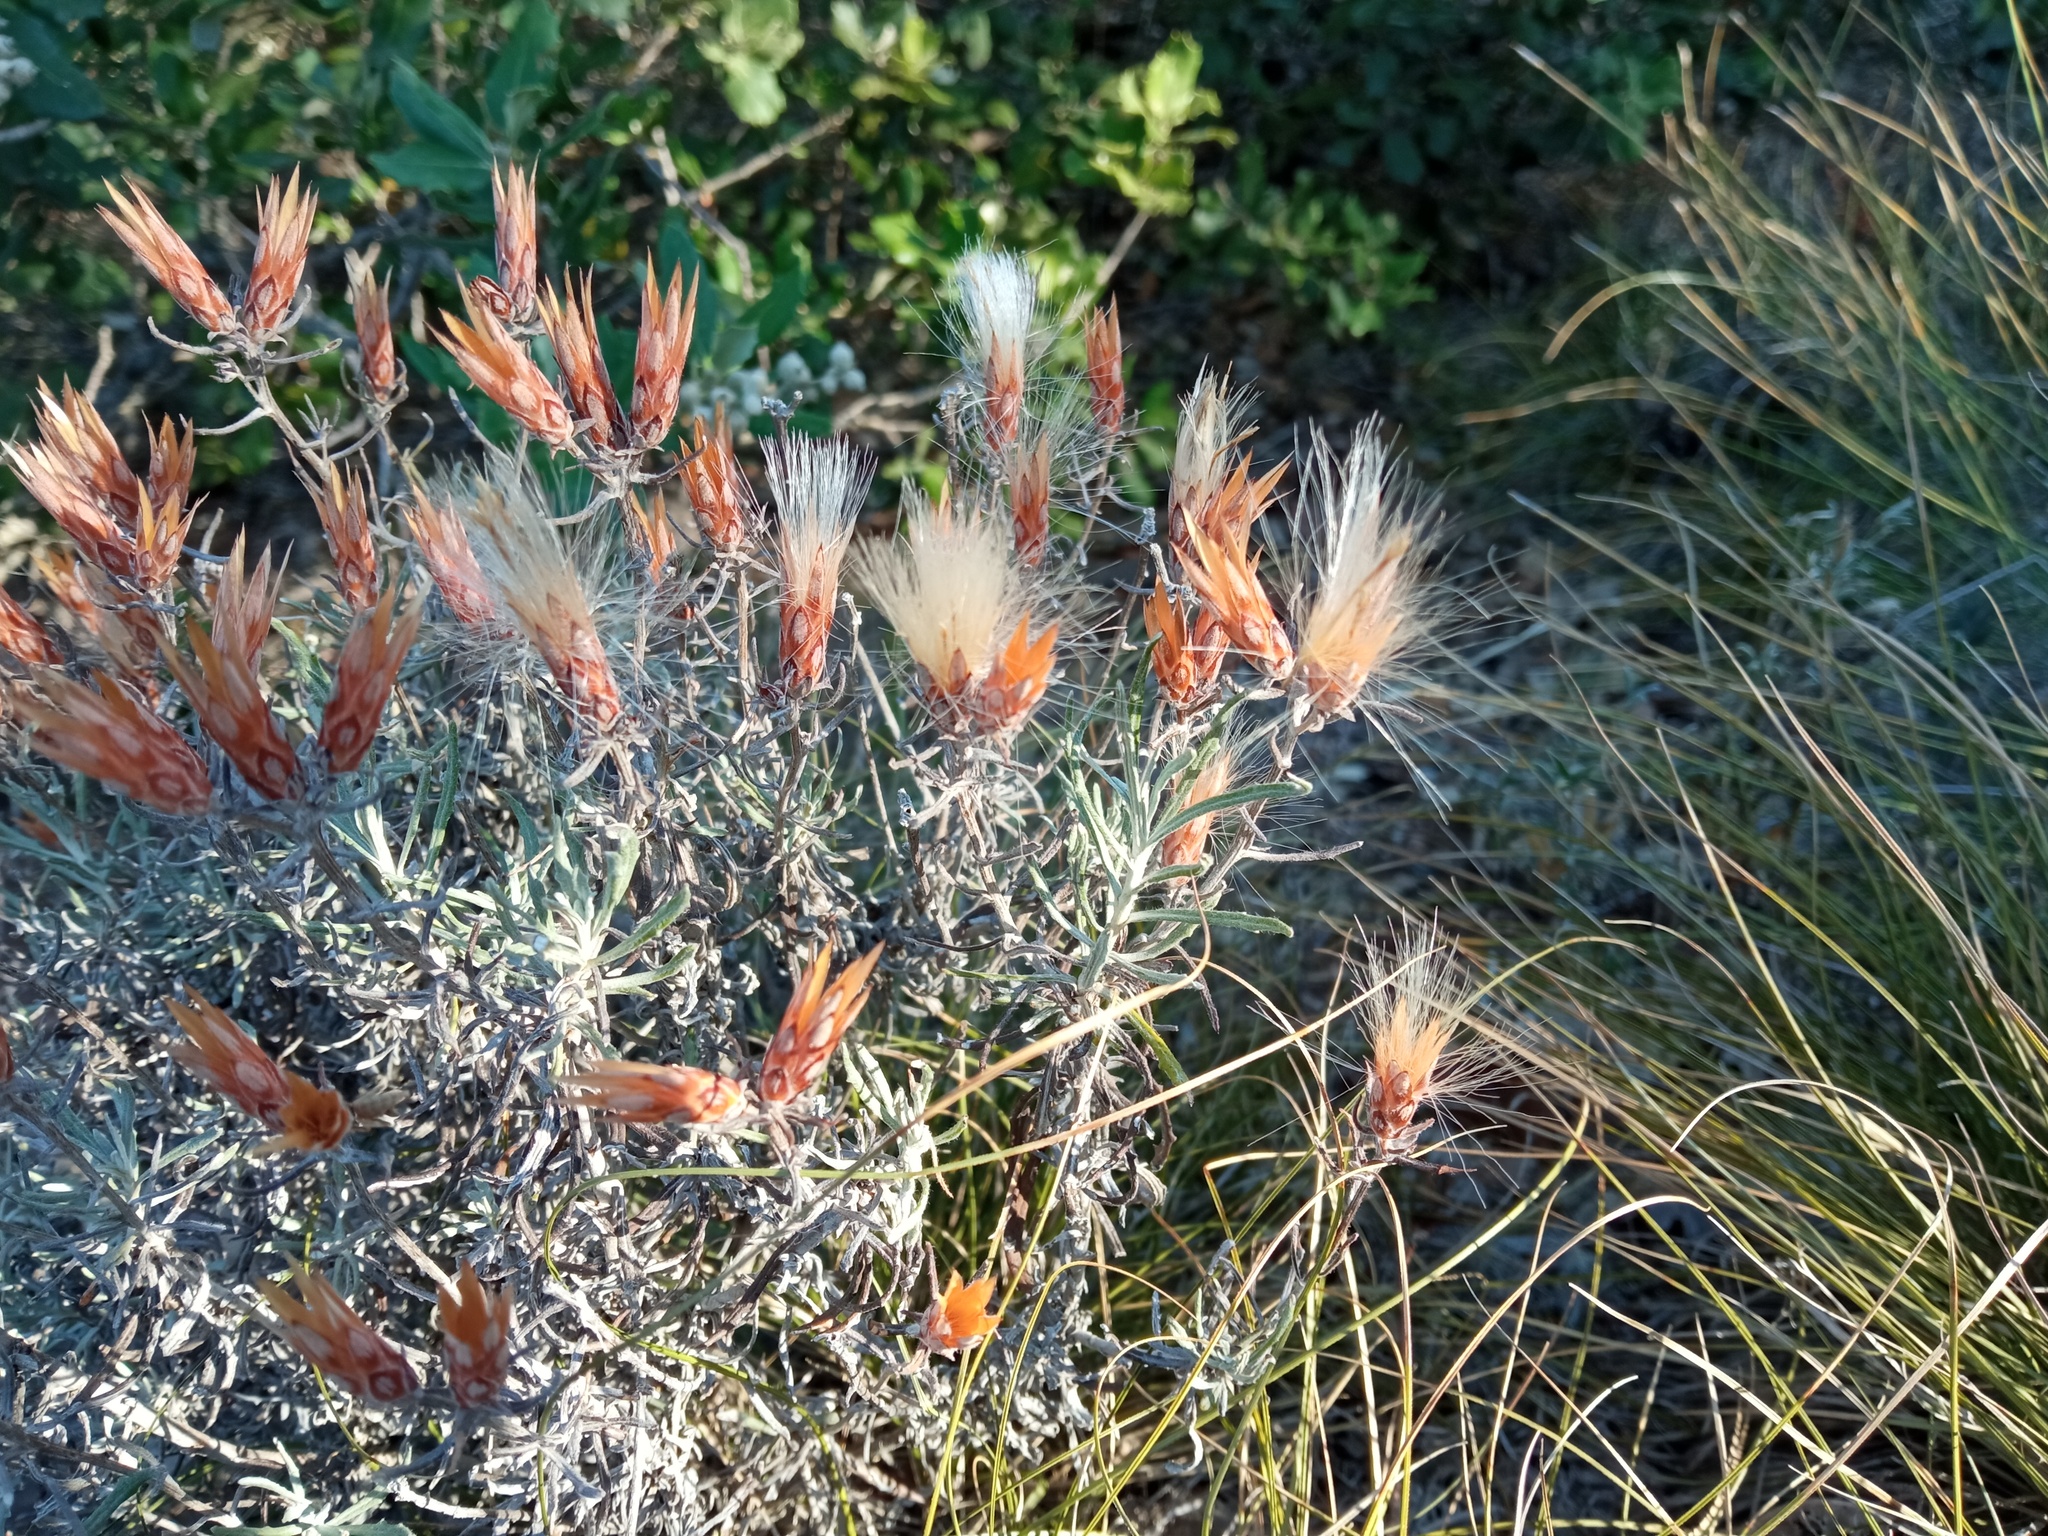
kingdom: Plantae
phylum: Tracheophyta
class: Magnoliopsida
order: Asterales
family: Asteraceae
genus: Staehelina
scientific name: Staehelina dubia
